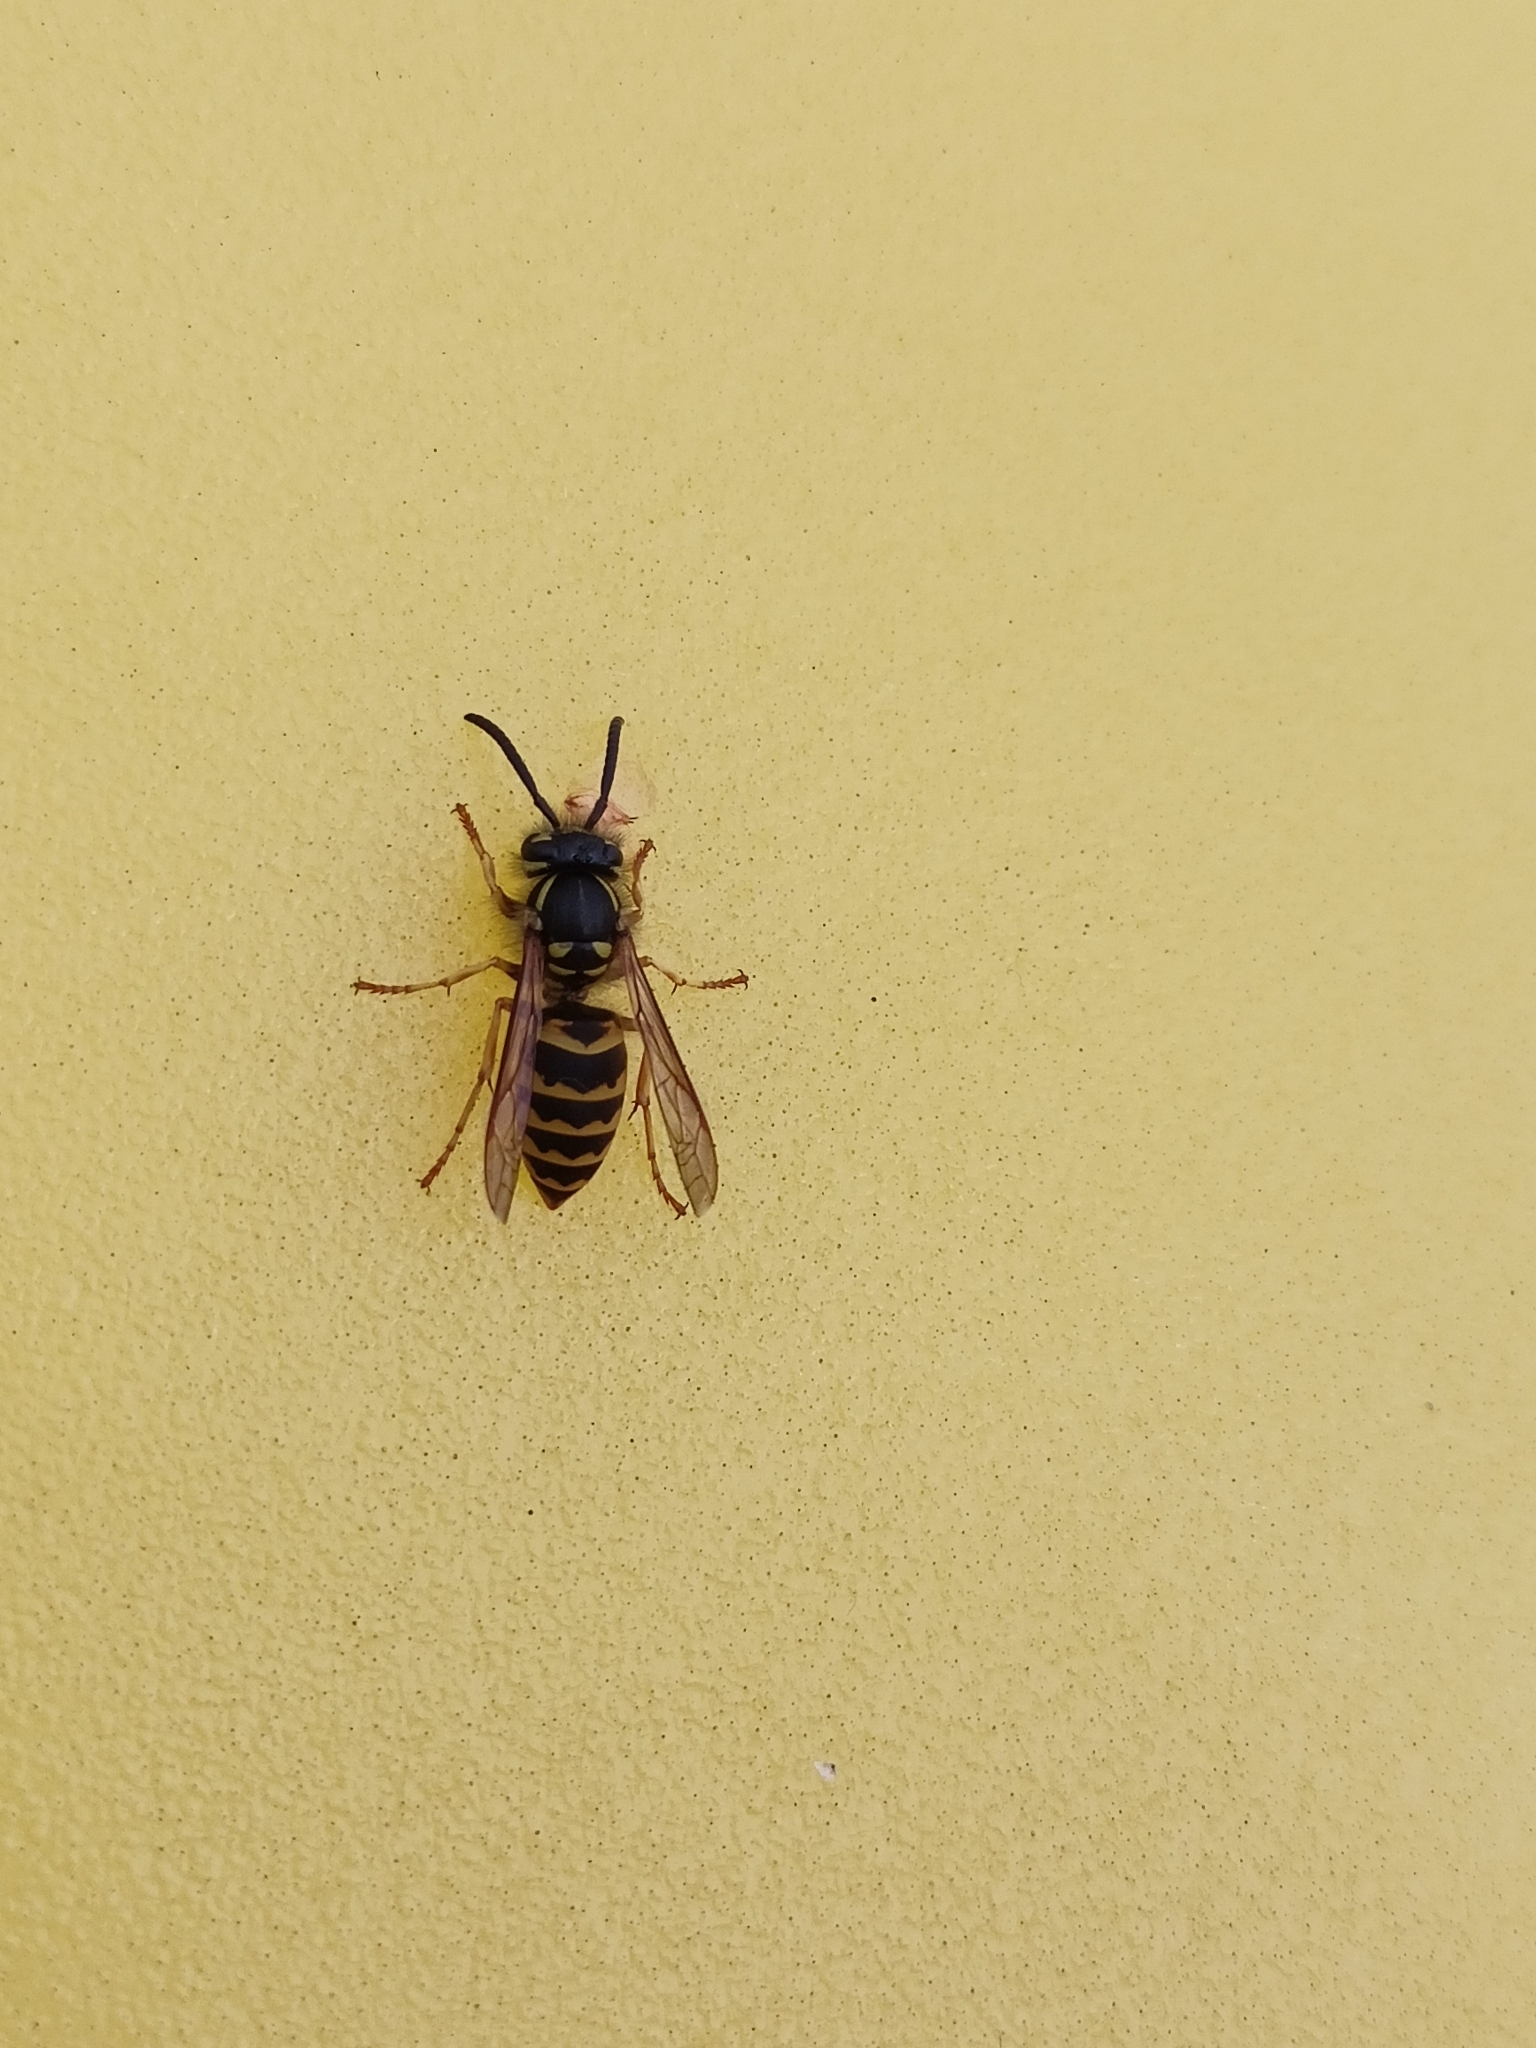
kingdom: Animalia
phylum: Arthropoda
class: Insecta
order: Hymenoptera
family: Vespidae
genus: Vespula
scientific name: Vespula vulgaris
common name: Common wasp
